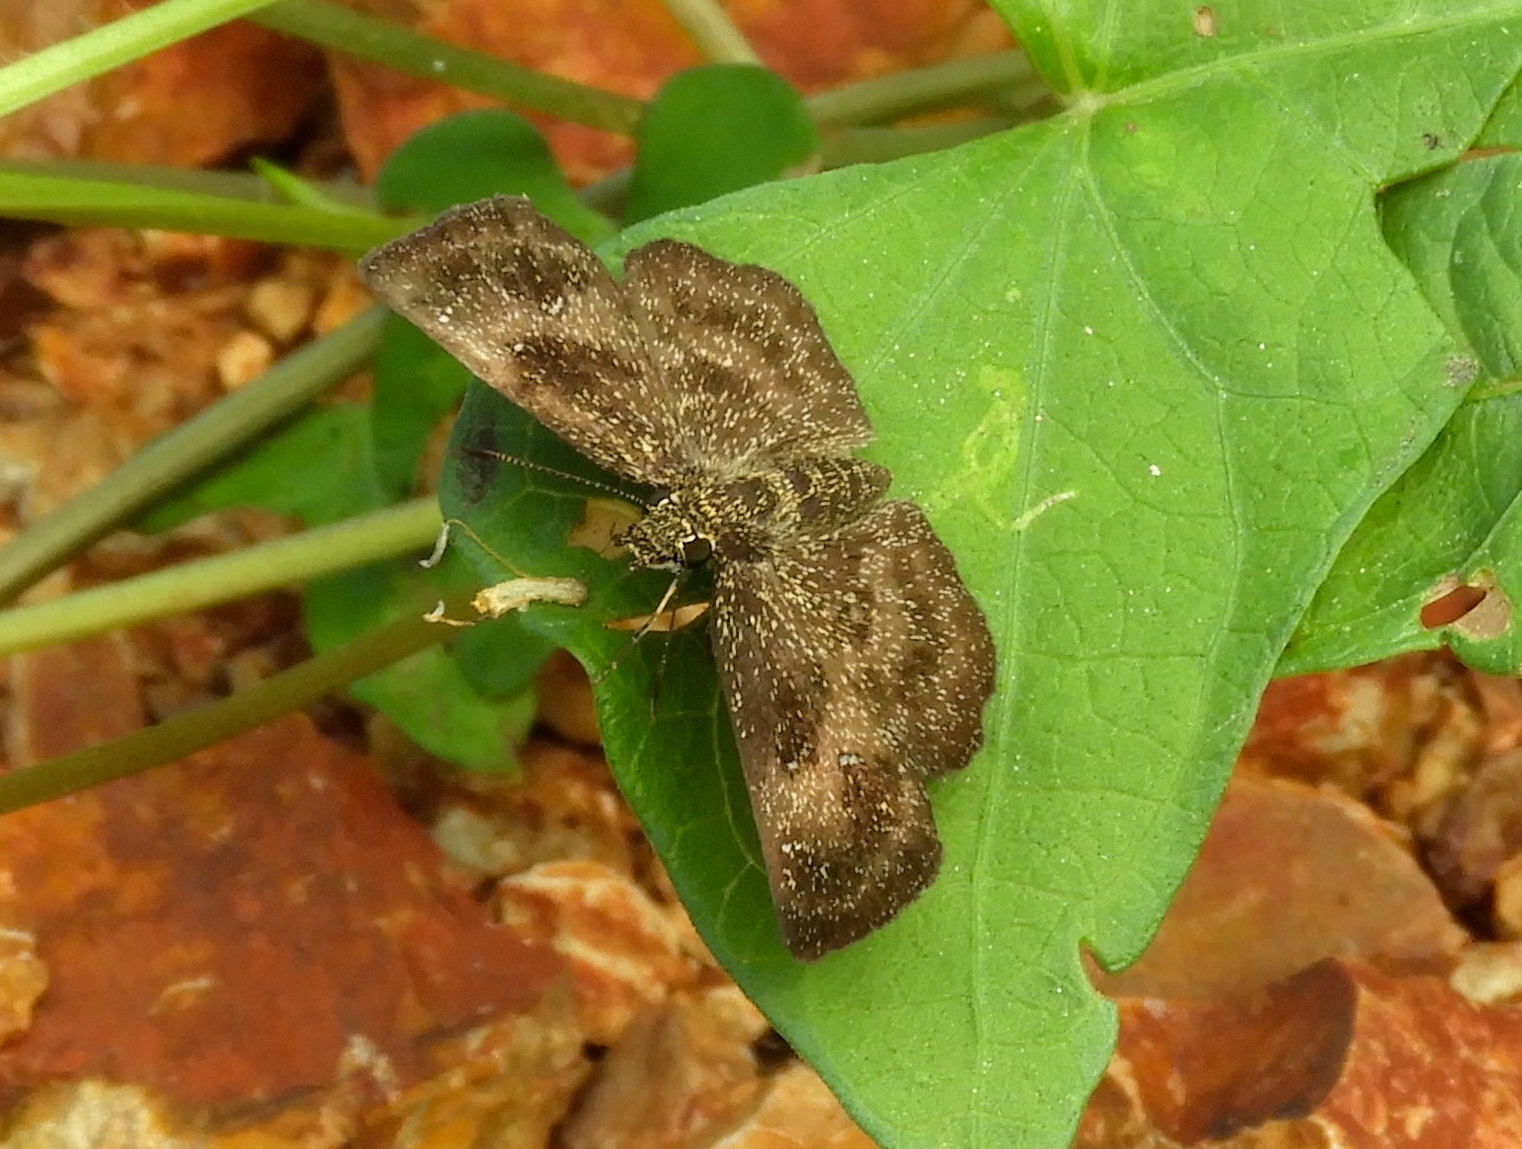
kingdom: Animalia
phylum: Arthropoda
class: Insecta
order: Lepidoptera
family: Hesperiidae
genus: Staphylus
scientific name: Staphylus
